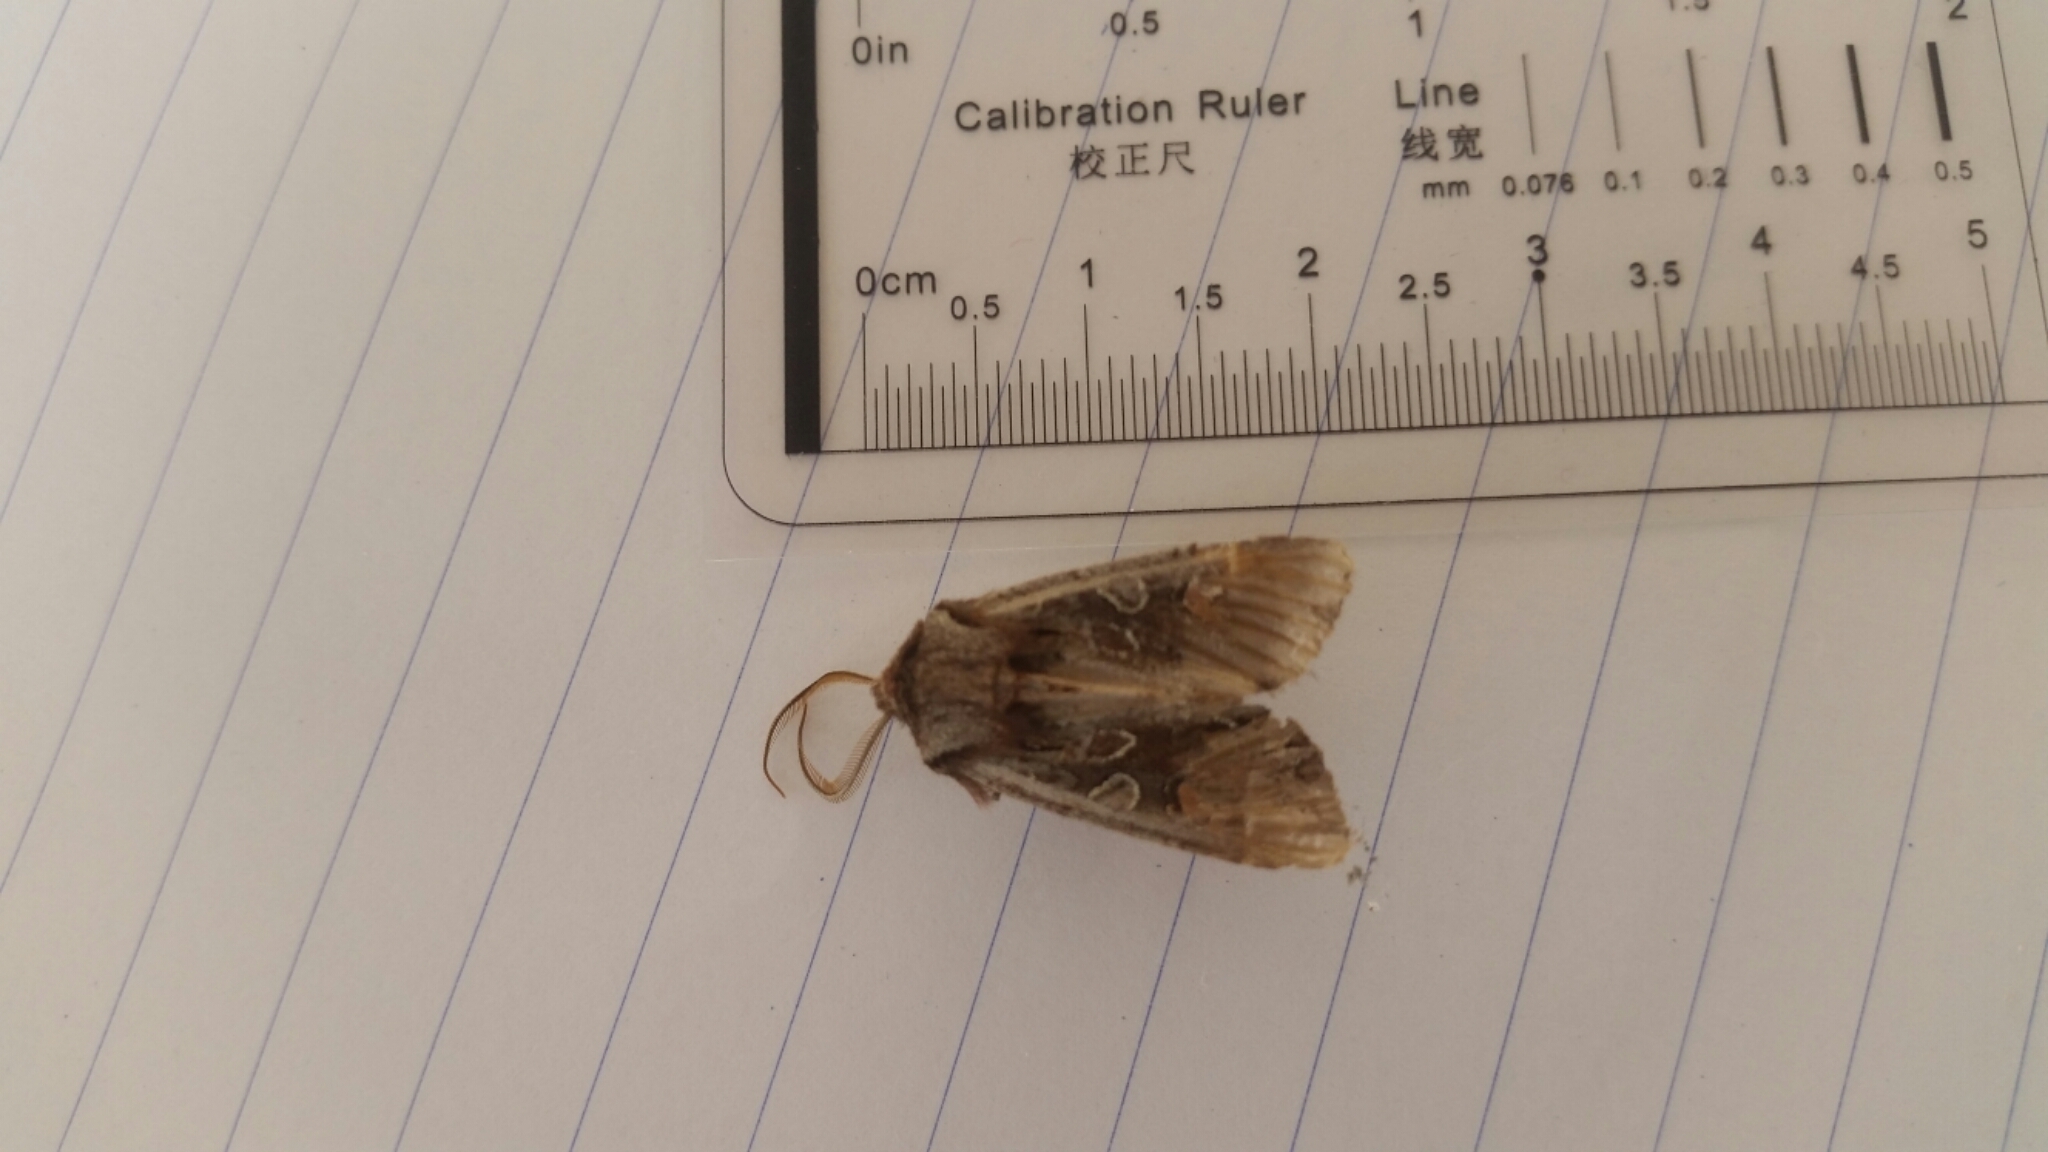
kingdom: Animalia
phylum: Arthropoda
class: Insecta
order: Lepidoptera
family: Noctuidae
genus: Ichneutica
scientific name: Ichneutica
